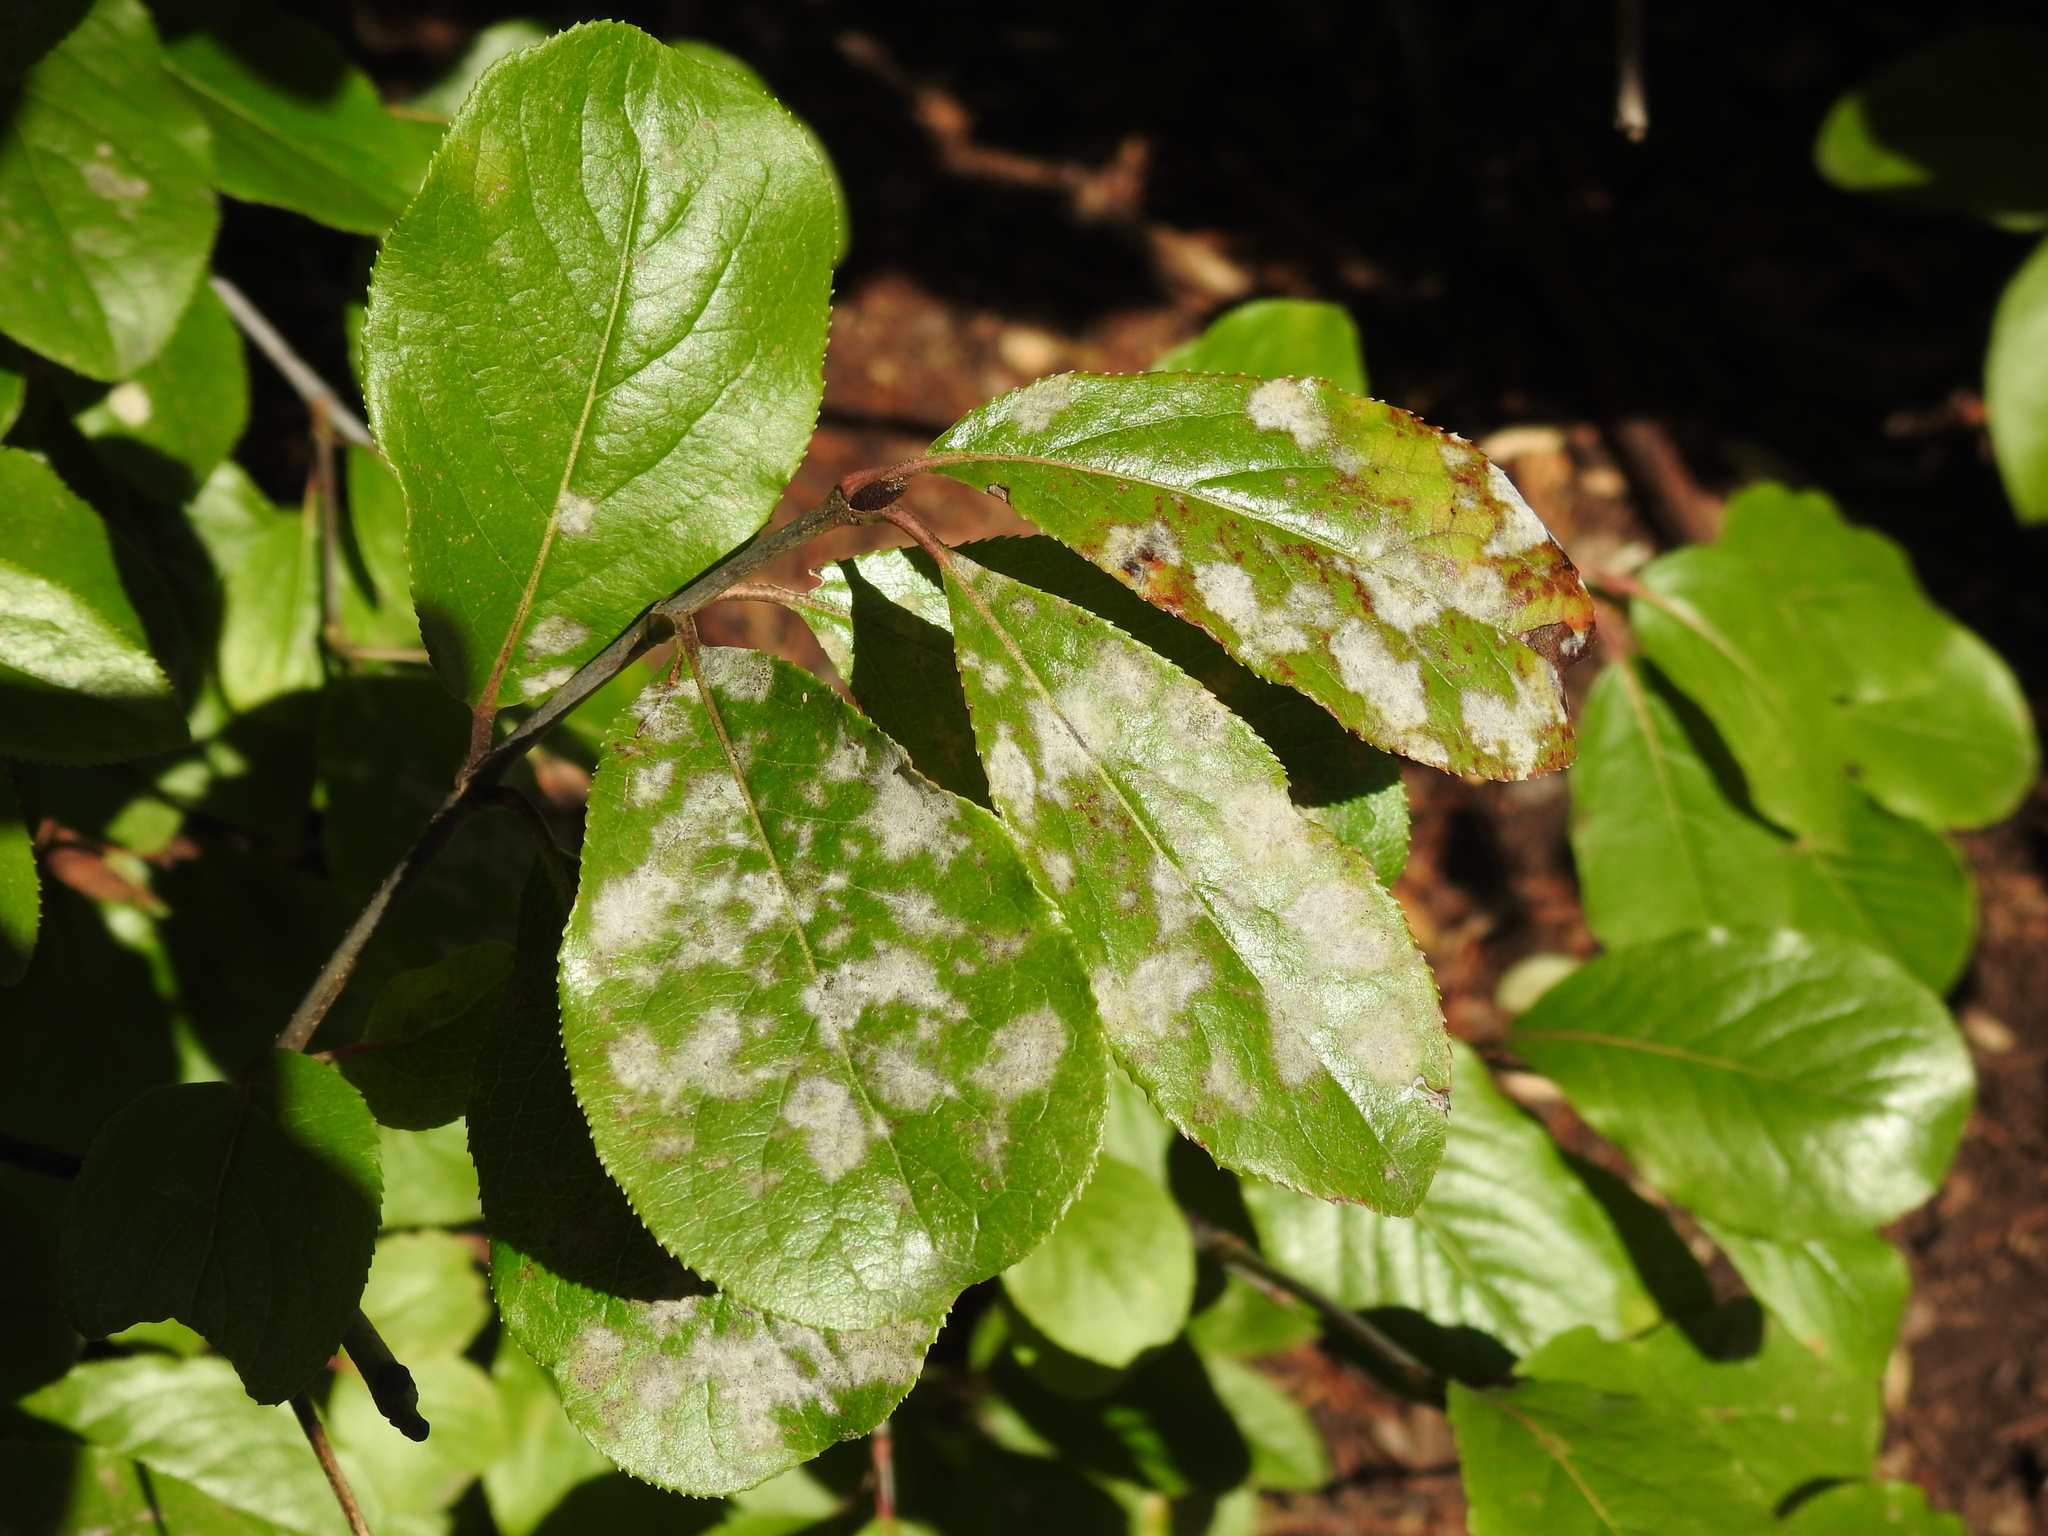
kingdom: Fungi
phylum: Ascomycota
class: Leotiomycetes
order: Helotiales
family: Erysiphaceae
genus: Erysiphe
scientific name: Erysiphe viburni
